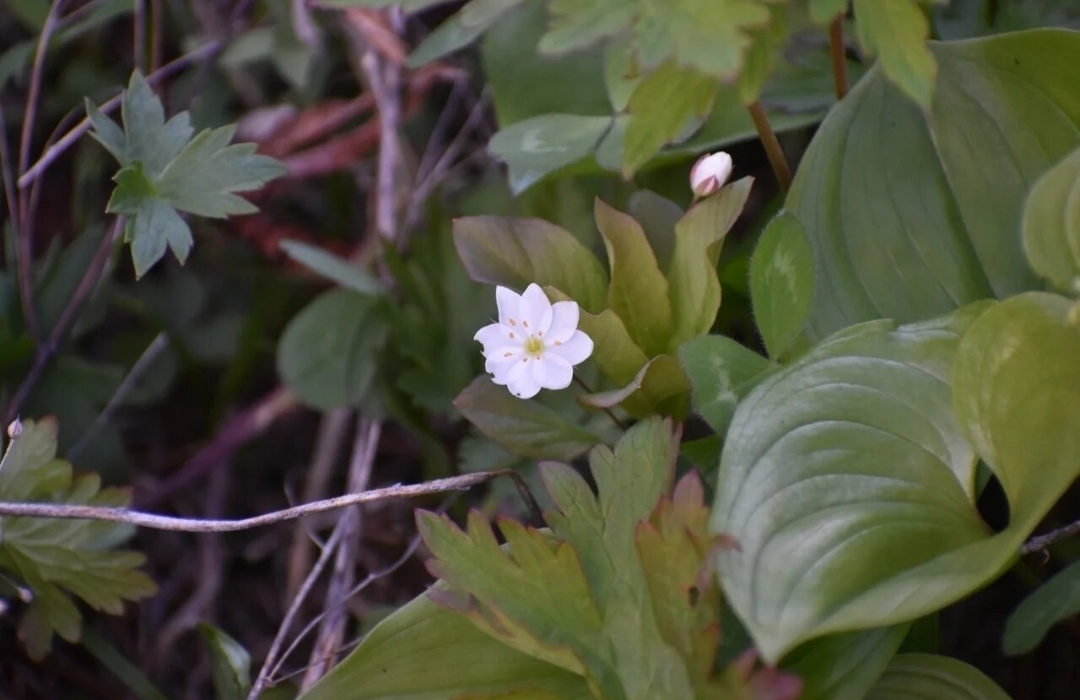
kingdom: Plantae
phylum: Tracheophyta
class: Magnoliopsida
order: Ericales
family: Primulaceae
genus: Lysimachia
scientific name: Lysimachia europaea
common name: Arctic starflower
